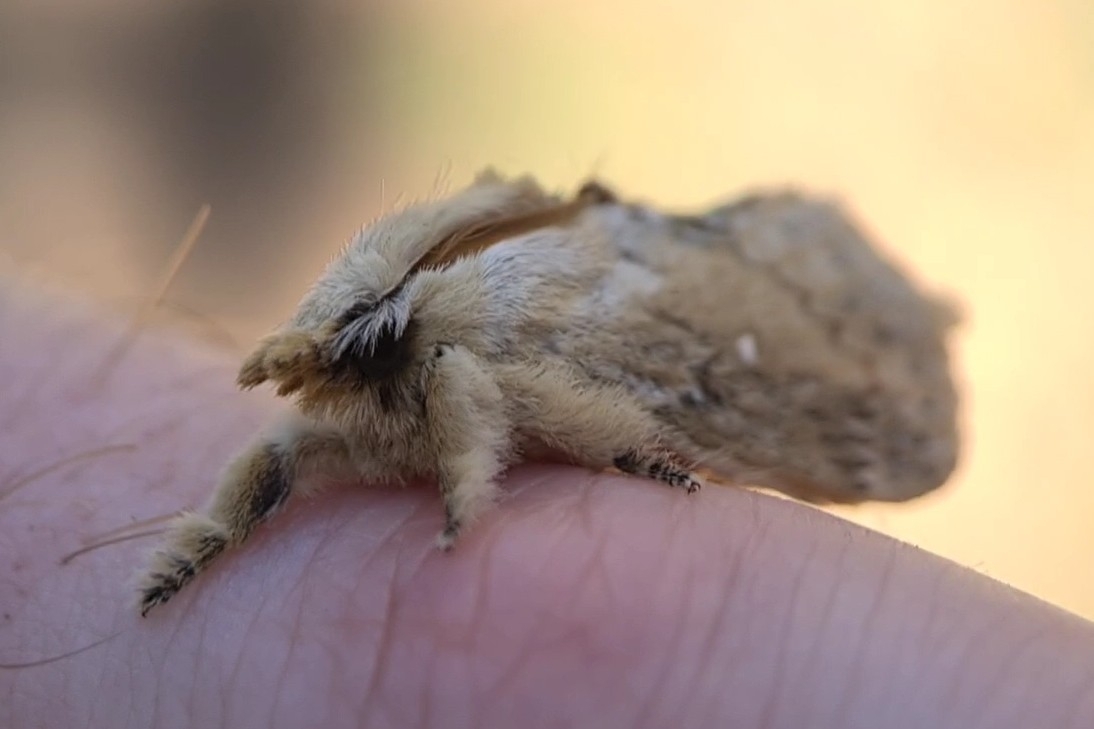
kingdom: Animalia
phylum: Arthropoda
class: Insecta
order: Lepidoptera
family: Lasiocampidae
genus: Porela
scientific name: Porela cinerea
